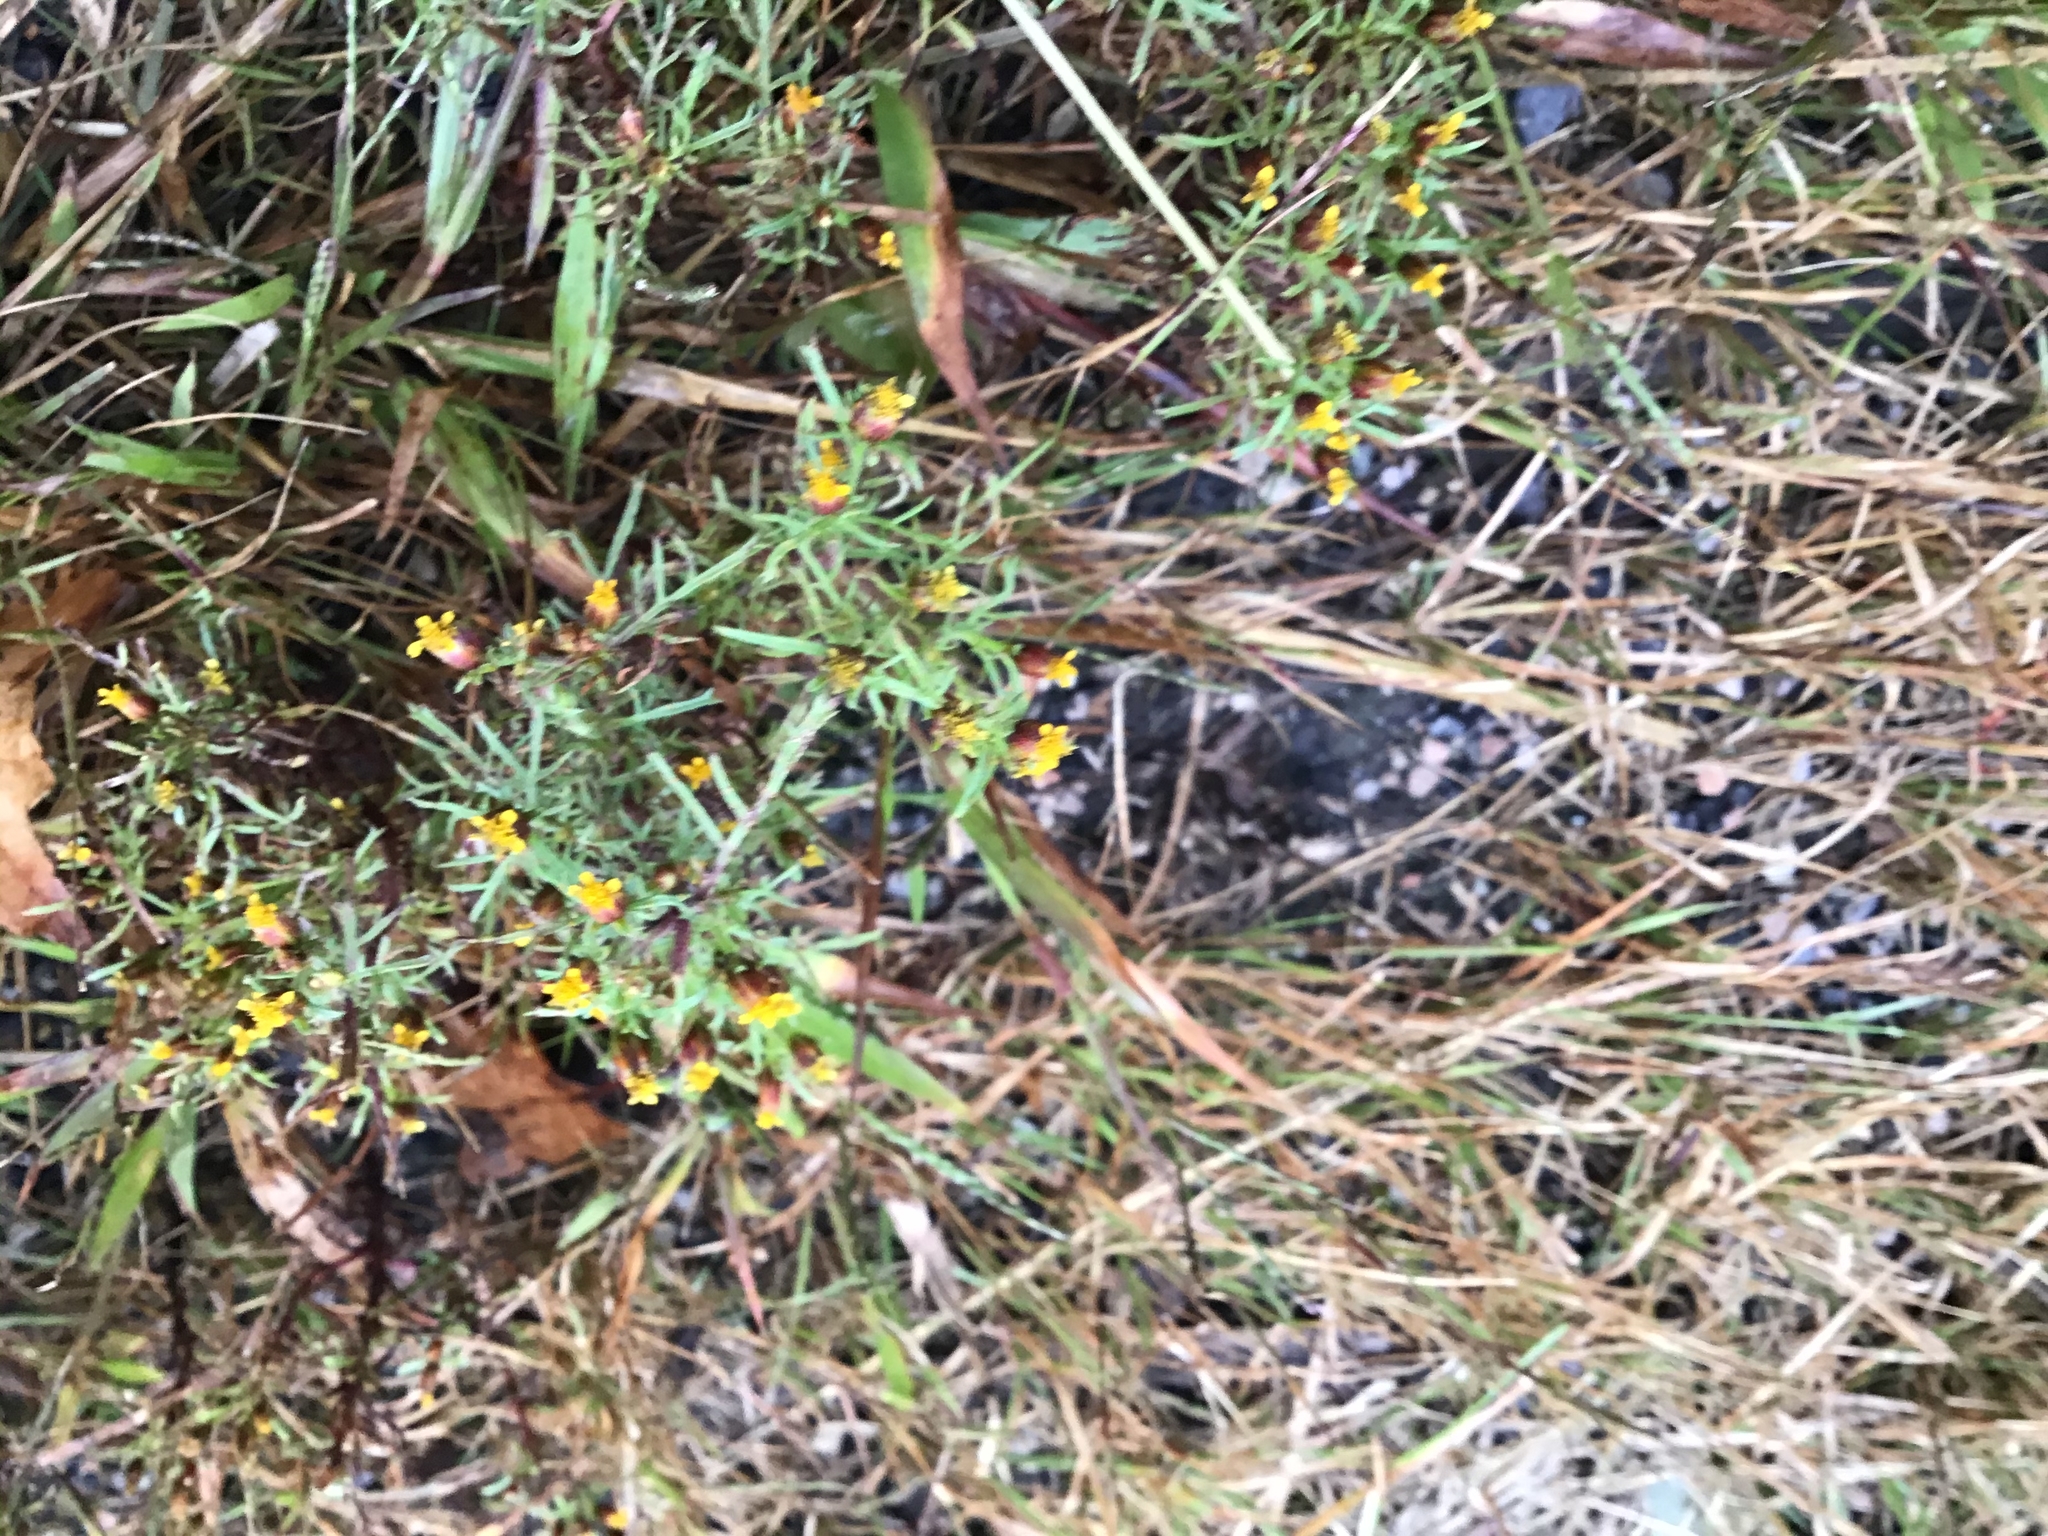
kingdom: Plantae
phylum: Tracheophyta
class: Magnoliopsida
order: Asterales
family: Asteraceae
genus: Dyssodia
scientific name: Dyssodia papposa
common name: Dogweed
